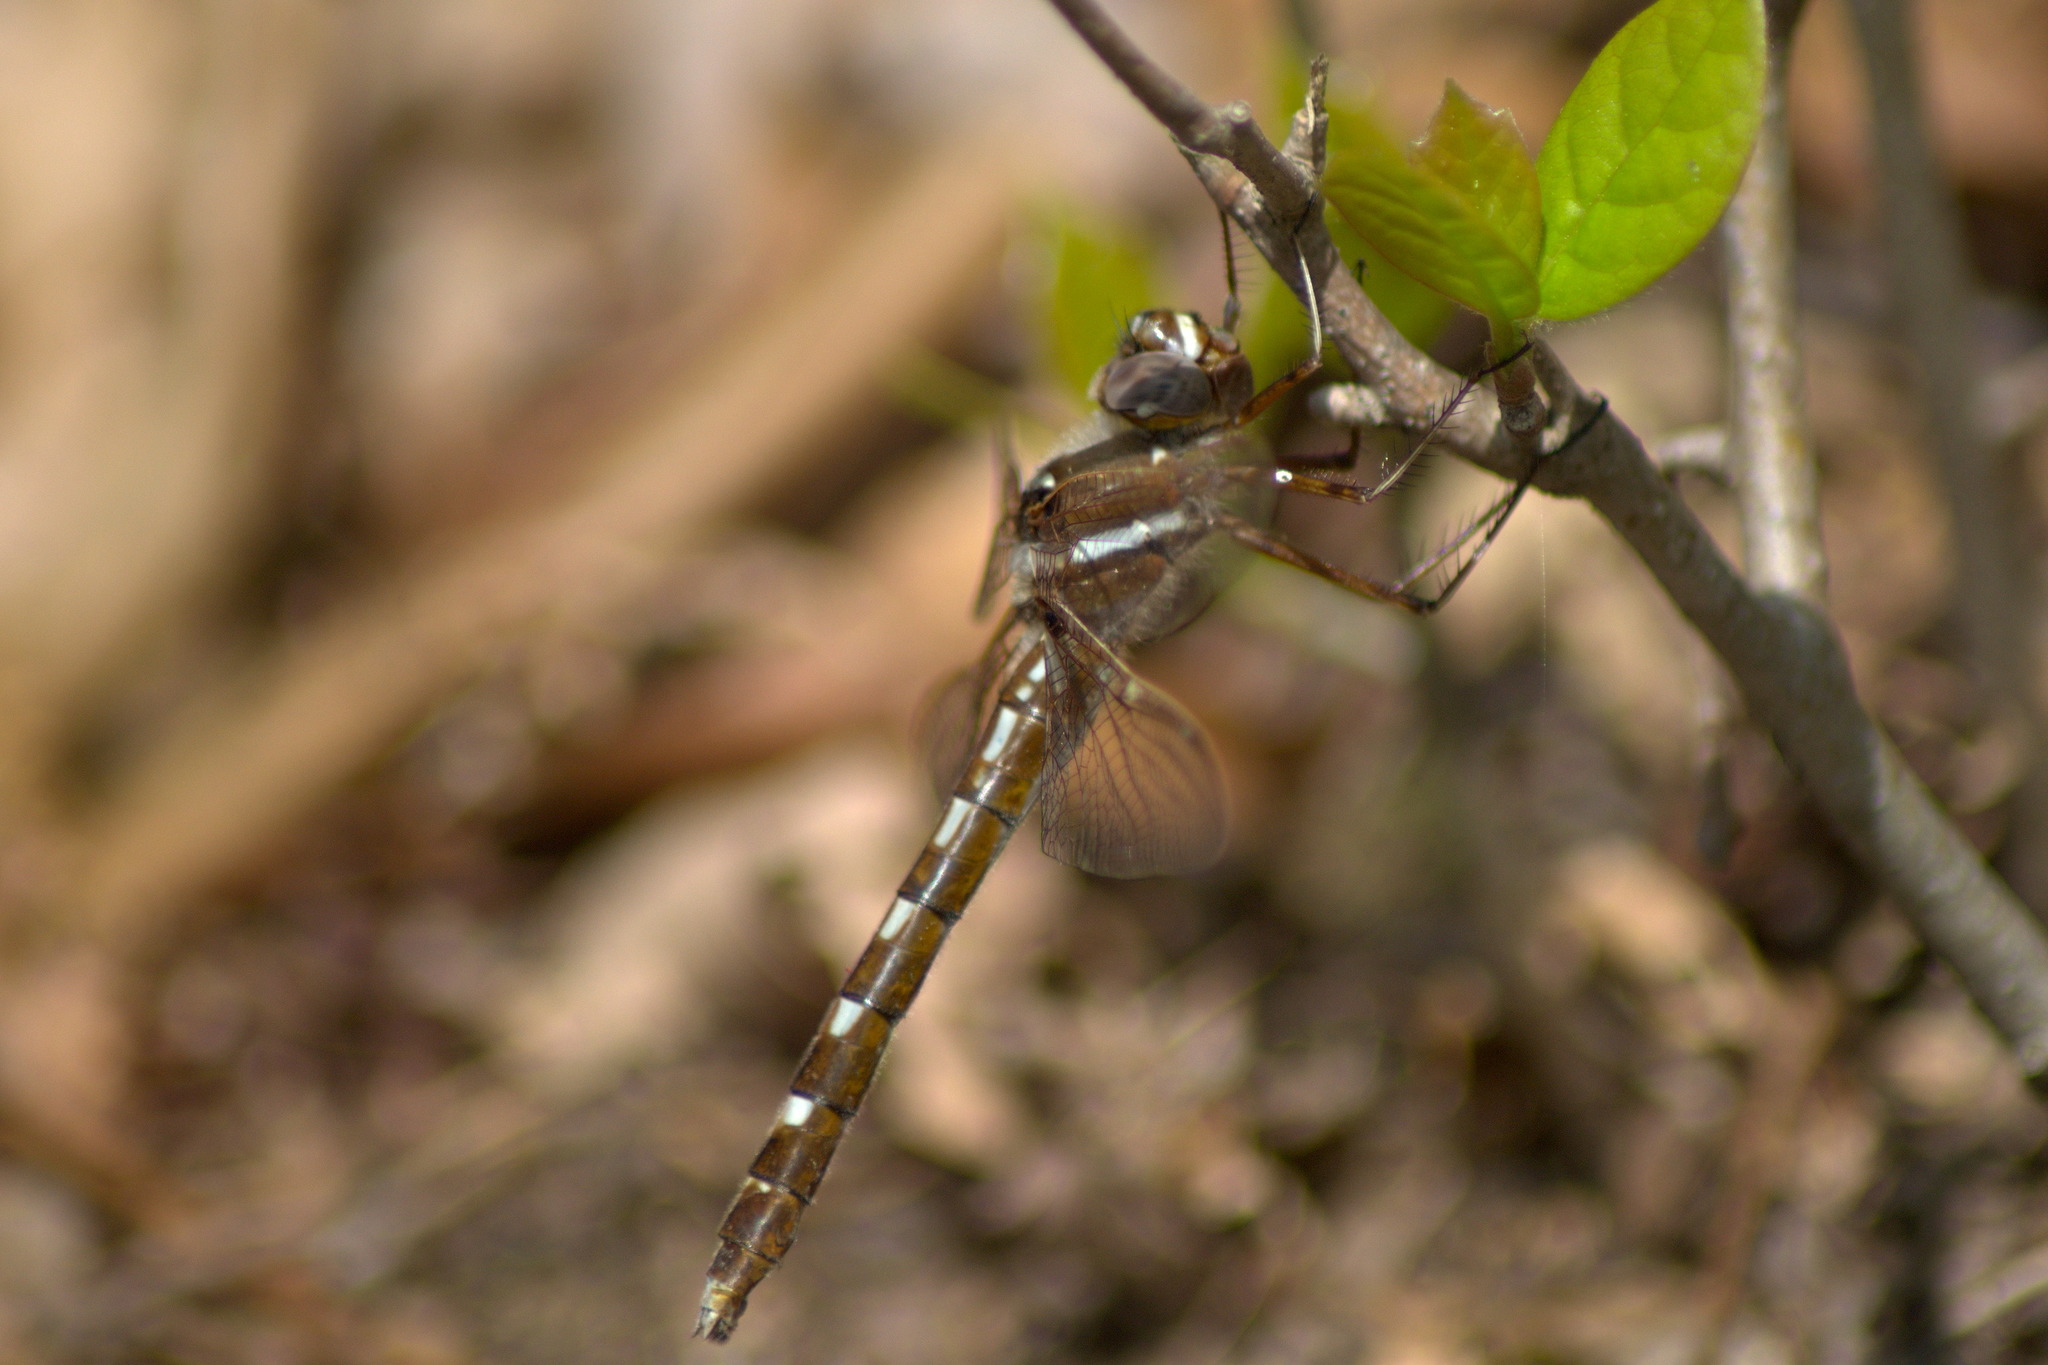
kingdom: Animalia
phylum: Arthropoda
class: Insecta
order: Odonata
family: Macromiidae
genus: Didymops
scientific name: Didymops transversa
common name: Stream cruiser
